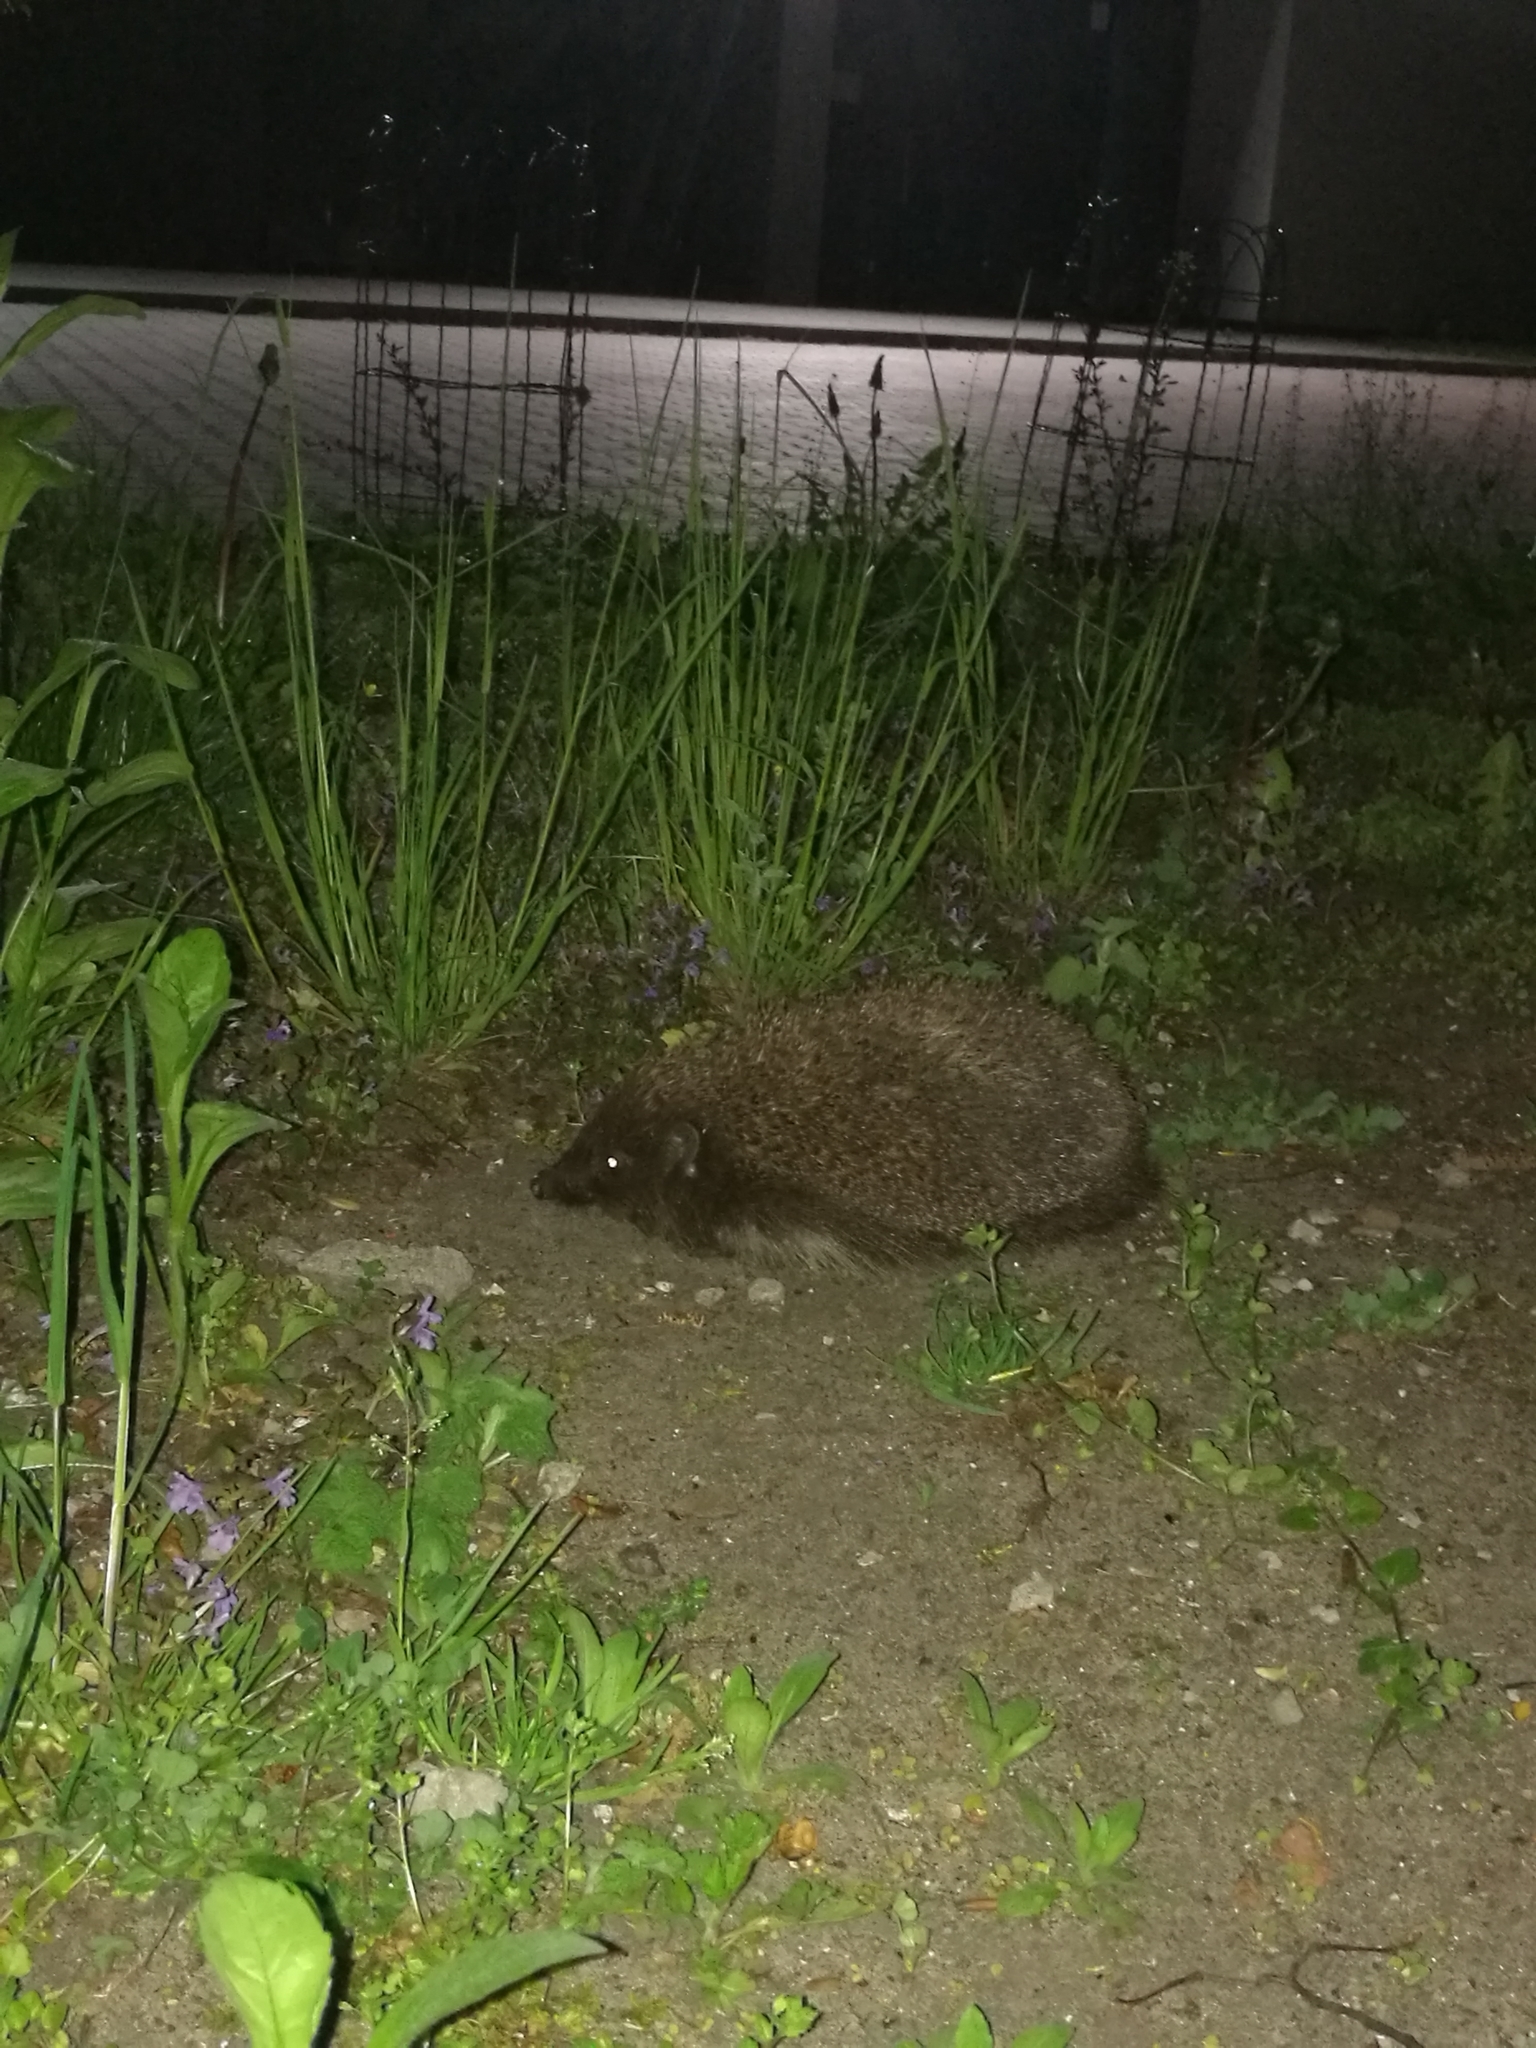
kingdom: Animalia
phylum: Chordata
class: Mammalia
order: Erinaceomorpha
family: Erinaceidae
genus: Erinaceus
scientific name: Erinaceus roumanicus
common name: Northern white-breasted hedgehog
